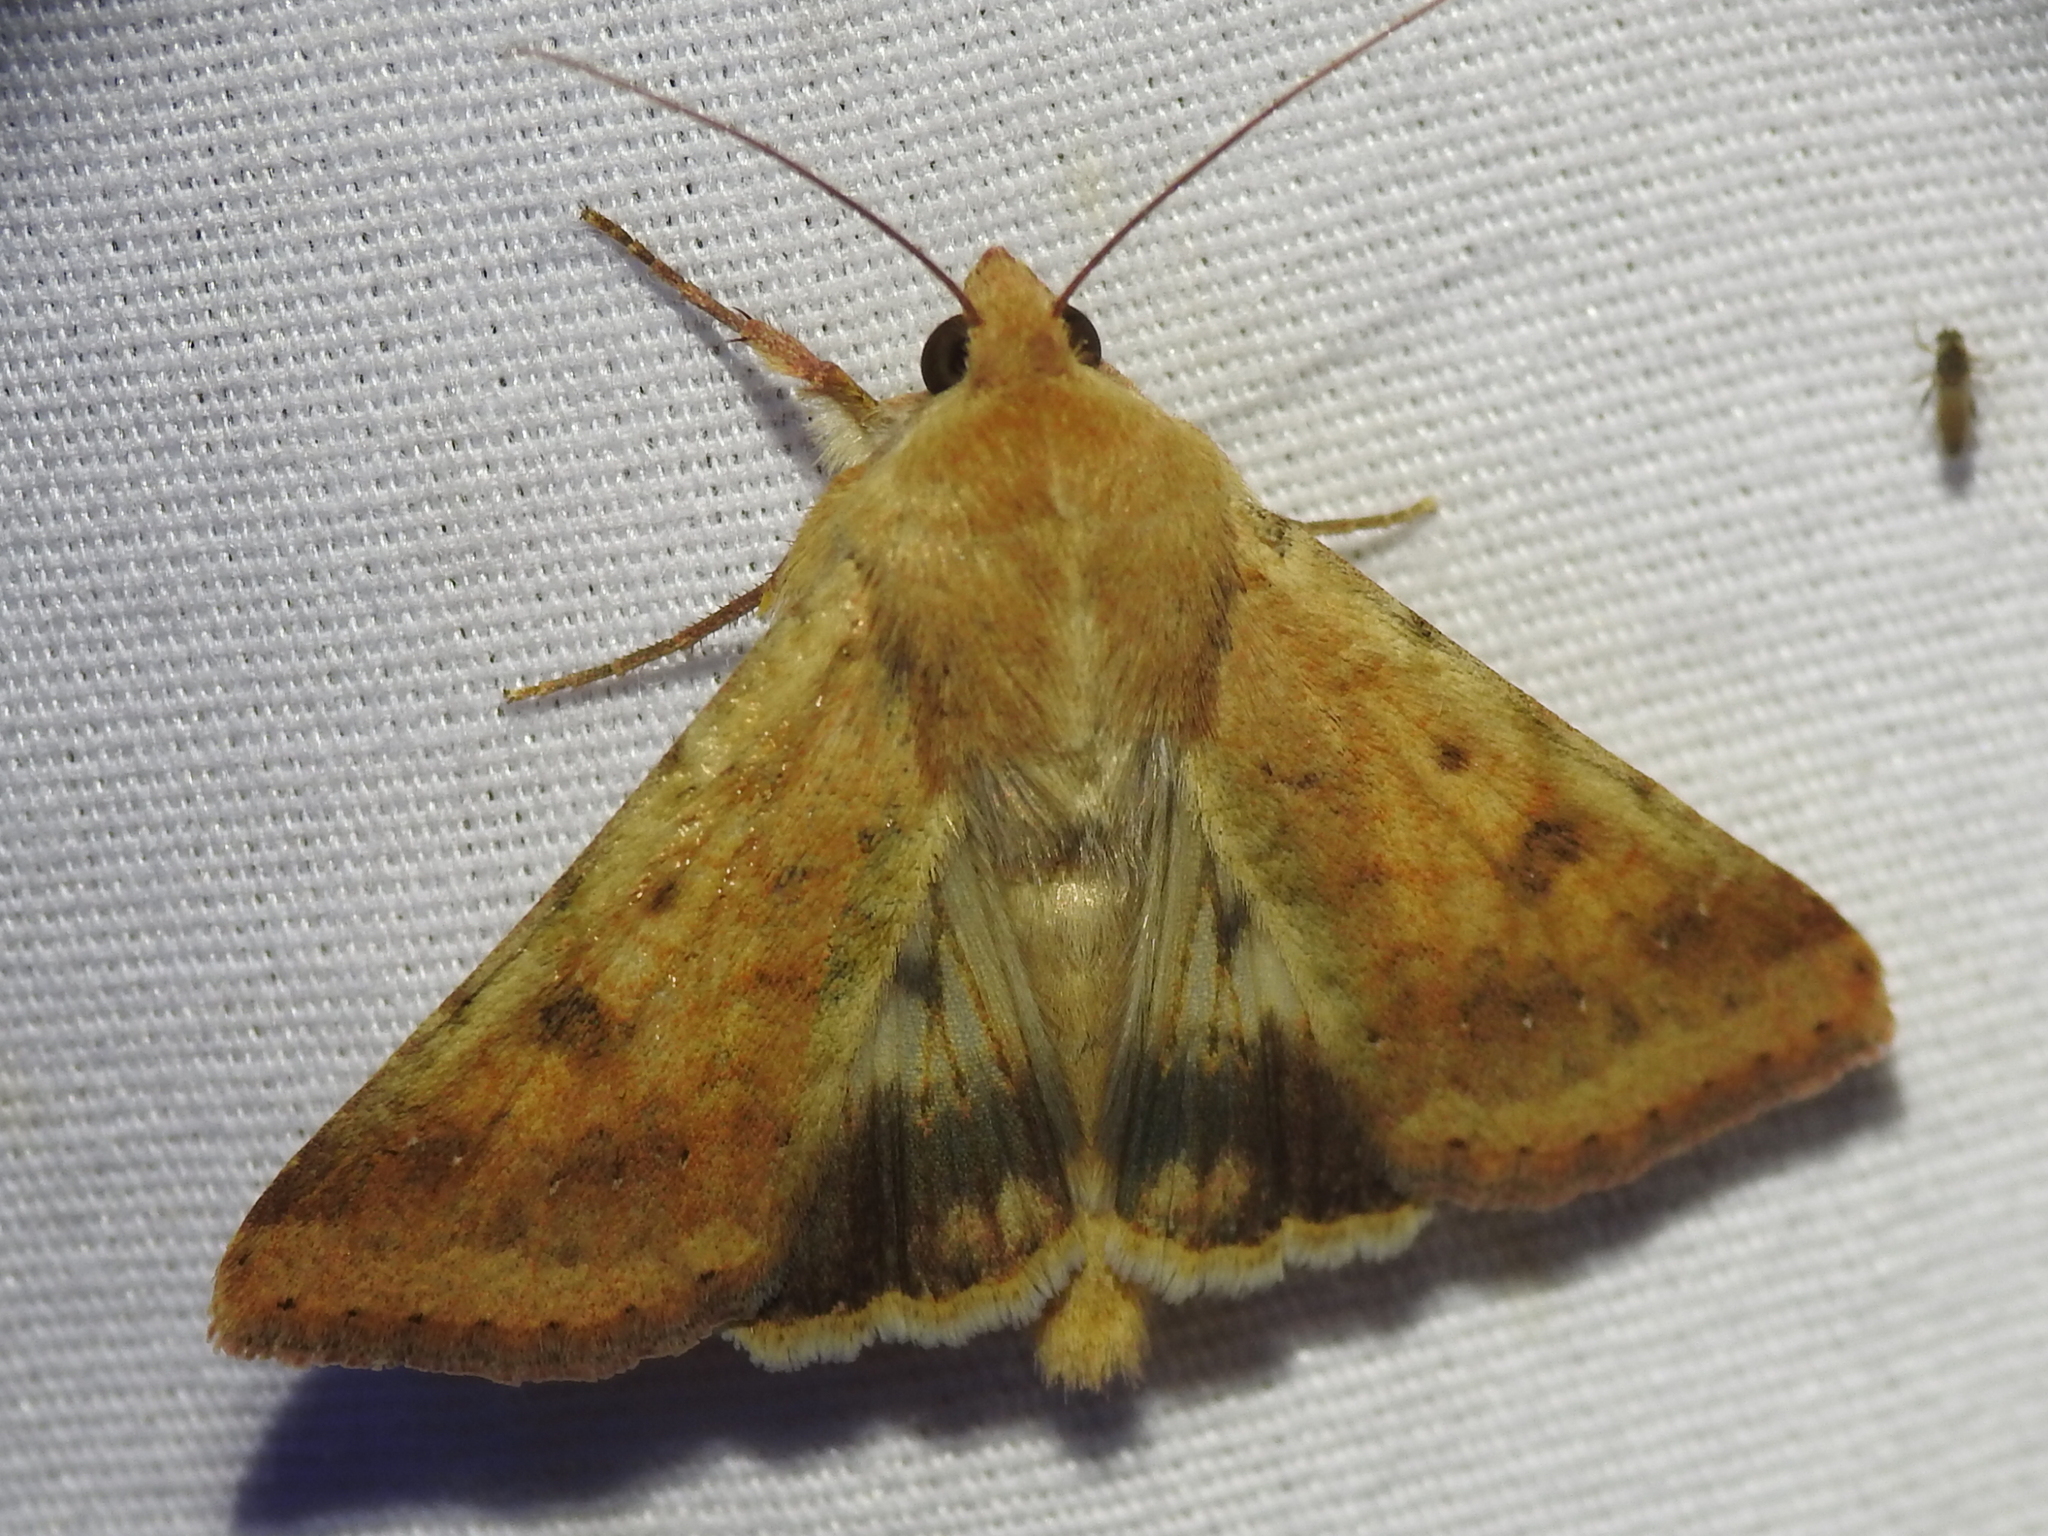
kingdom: Animalia
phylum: Arthropoda
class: Insecta
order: Lepidoptera
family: Noctuidae
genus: Helicoverpa
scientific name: Helicoverpa zea
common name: Bollworm
